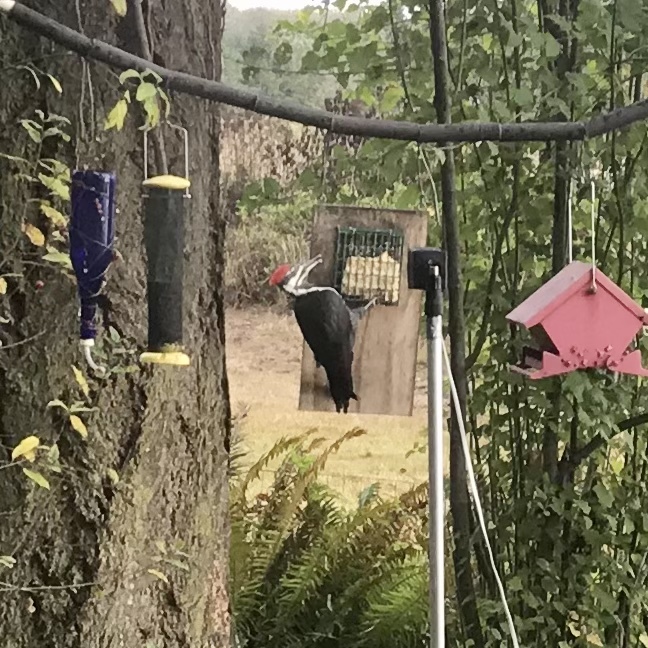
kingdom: Animalia
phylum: Chordata
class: Aves
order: Piciformes
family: Picidae
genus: Dryocopus
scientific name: Dryocopus pileatus
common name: Pileated woodpecker
